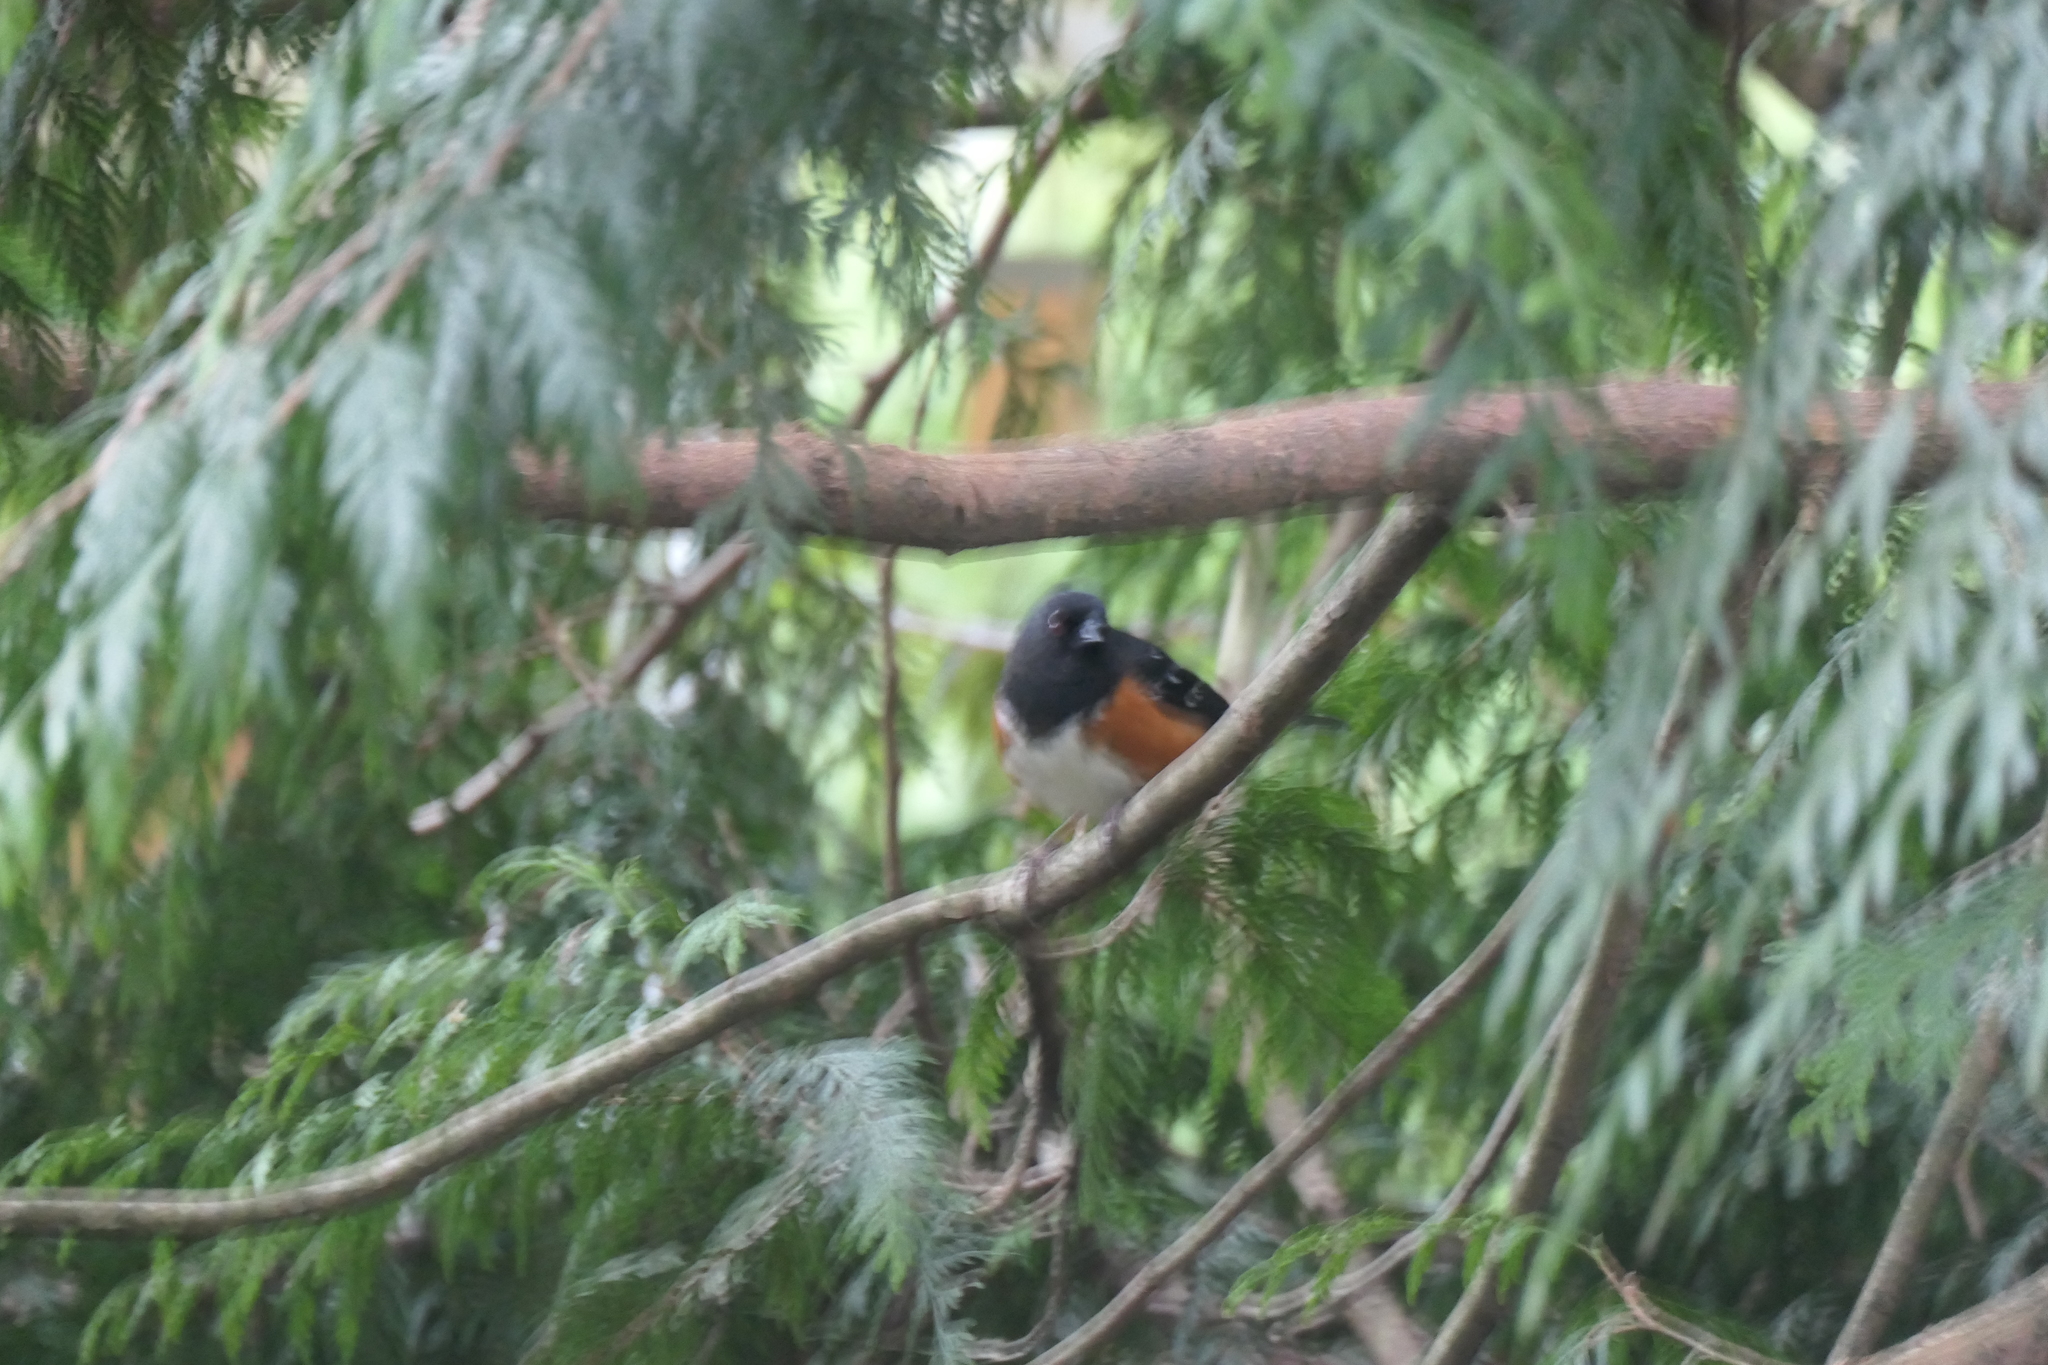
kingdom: Animalia
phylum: Chordata
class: Aves
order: Passeriformes
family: Passerellidae
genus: Pipilo
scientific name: Pipilo maculatus
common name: Spotted towhee
